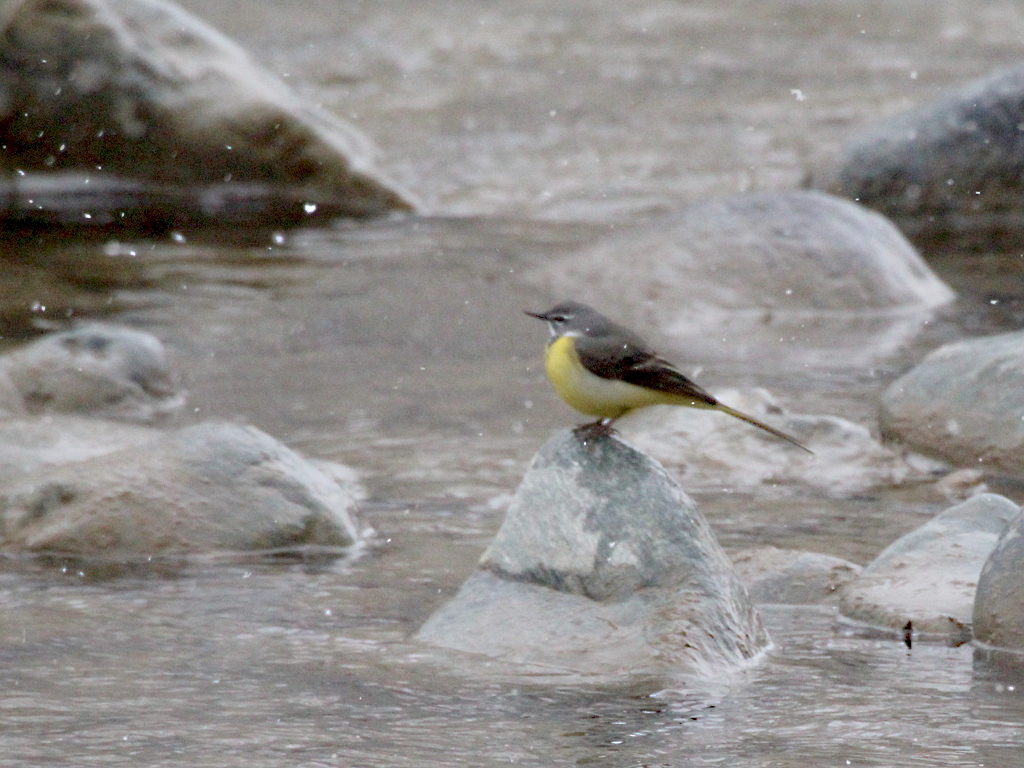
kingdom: Animalia
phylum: Chordata
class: Aves
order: Passeriformes
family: Motacillidae
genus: Motacilla
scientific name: Motacilla cinerea
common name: Grey wagtail
